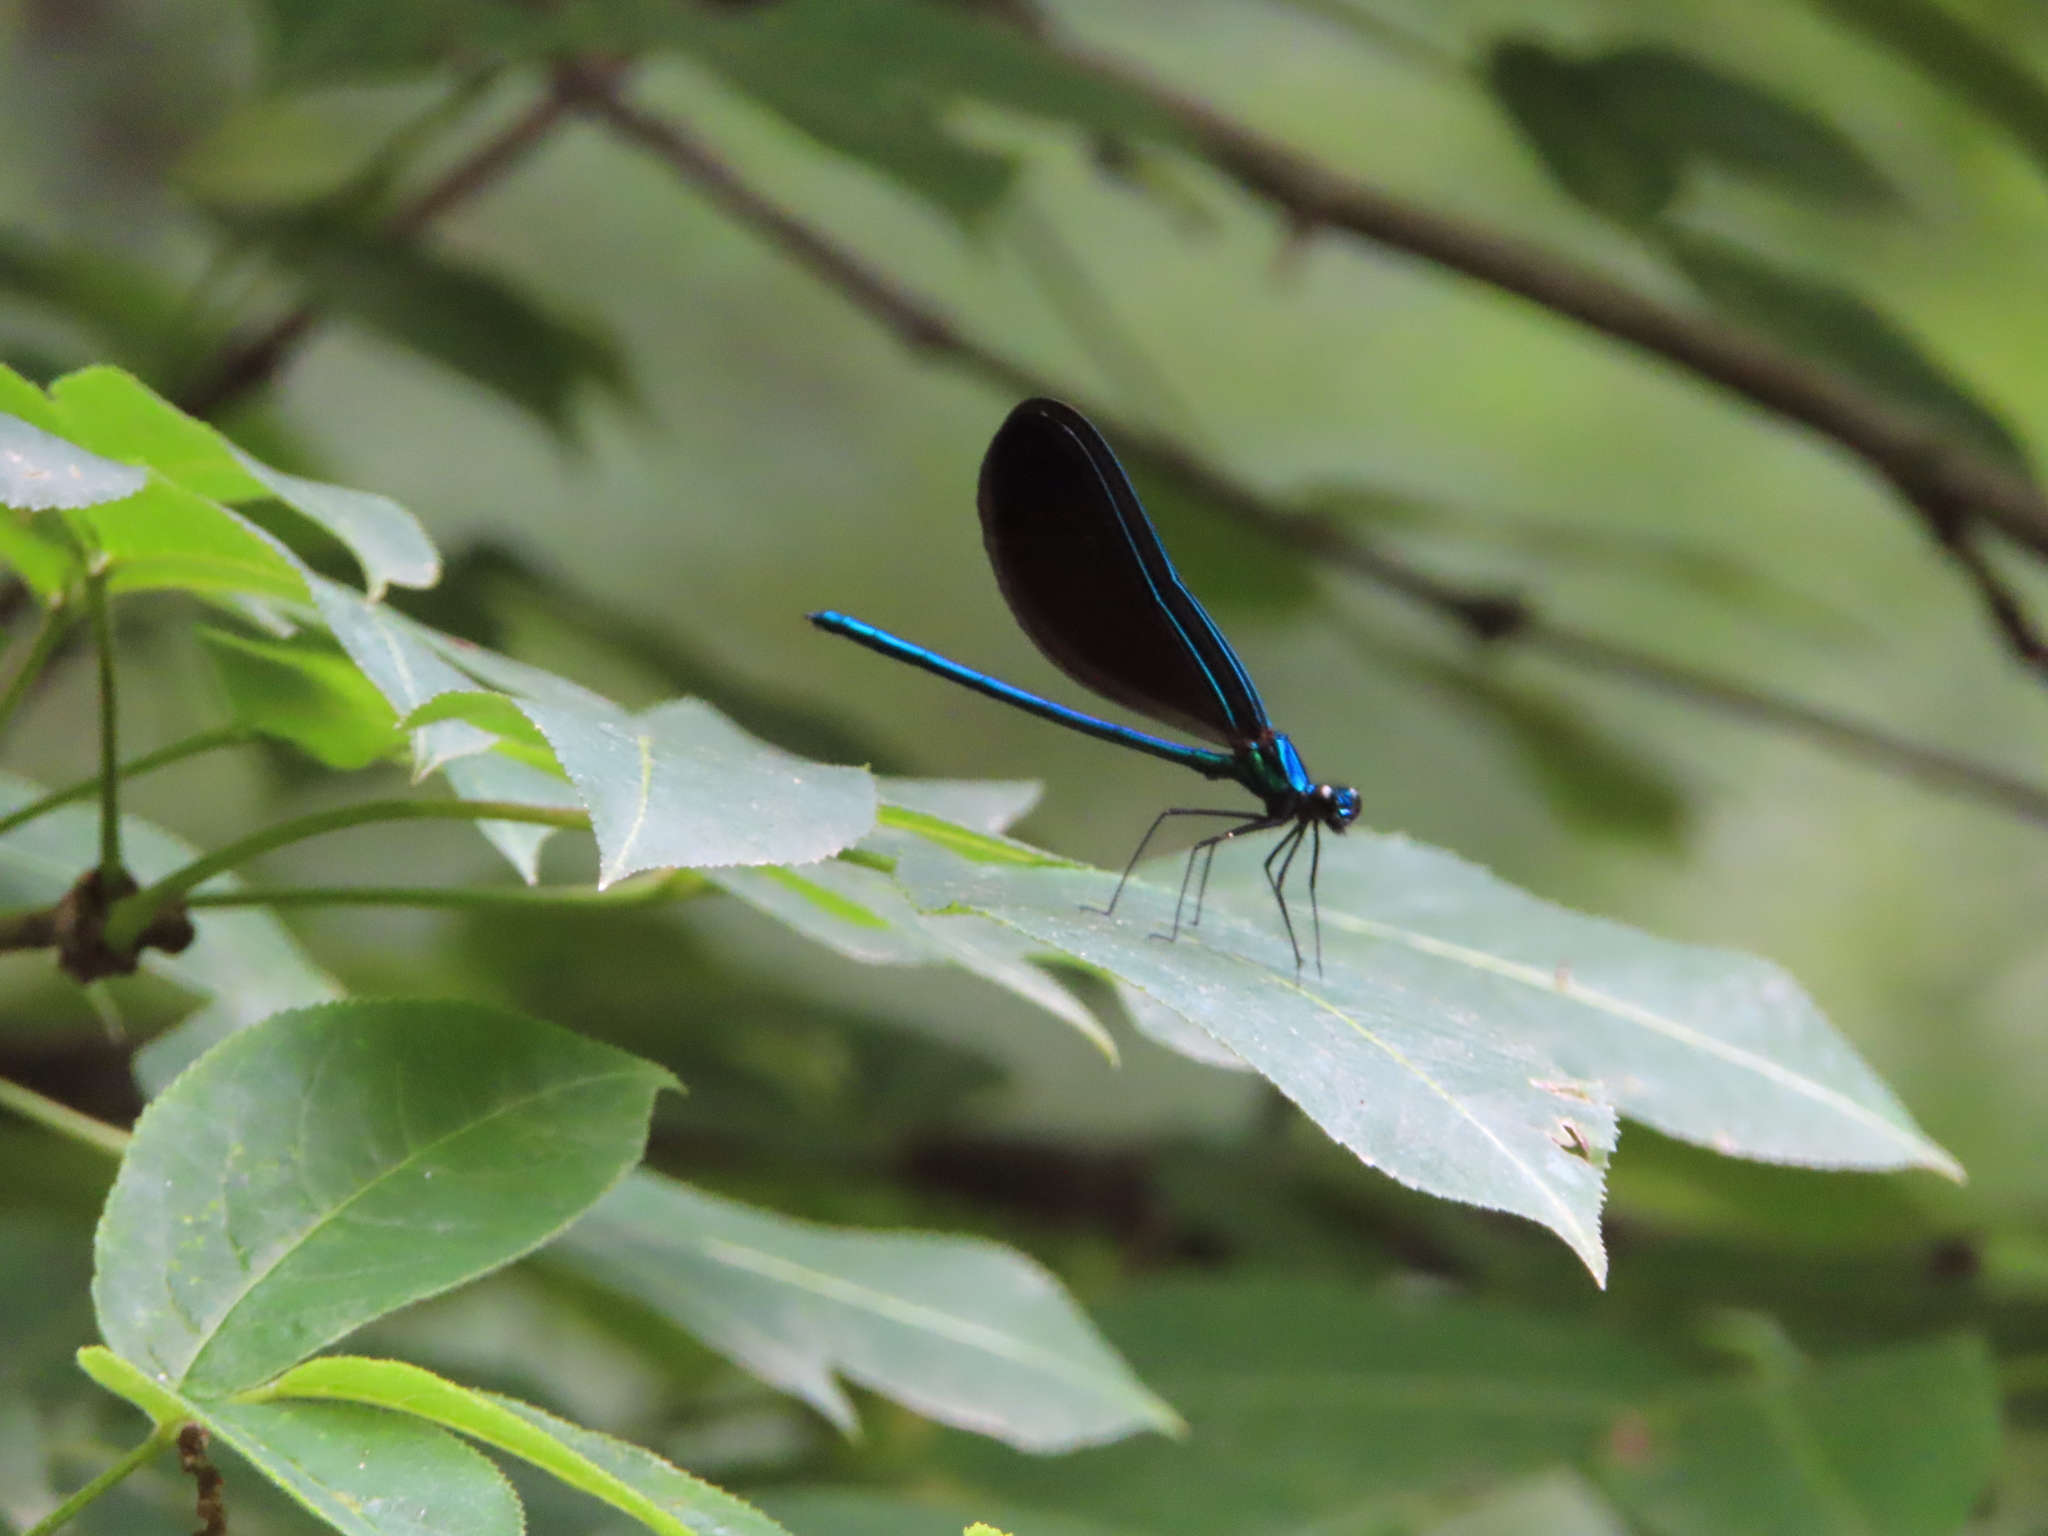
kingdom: Animalia
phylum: Arthropoda
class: Insecta
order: Odonata
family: Calopterygidae
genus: Calopteryx
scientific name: Calopteryx maculata
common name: Ebony jewelwing
